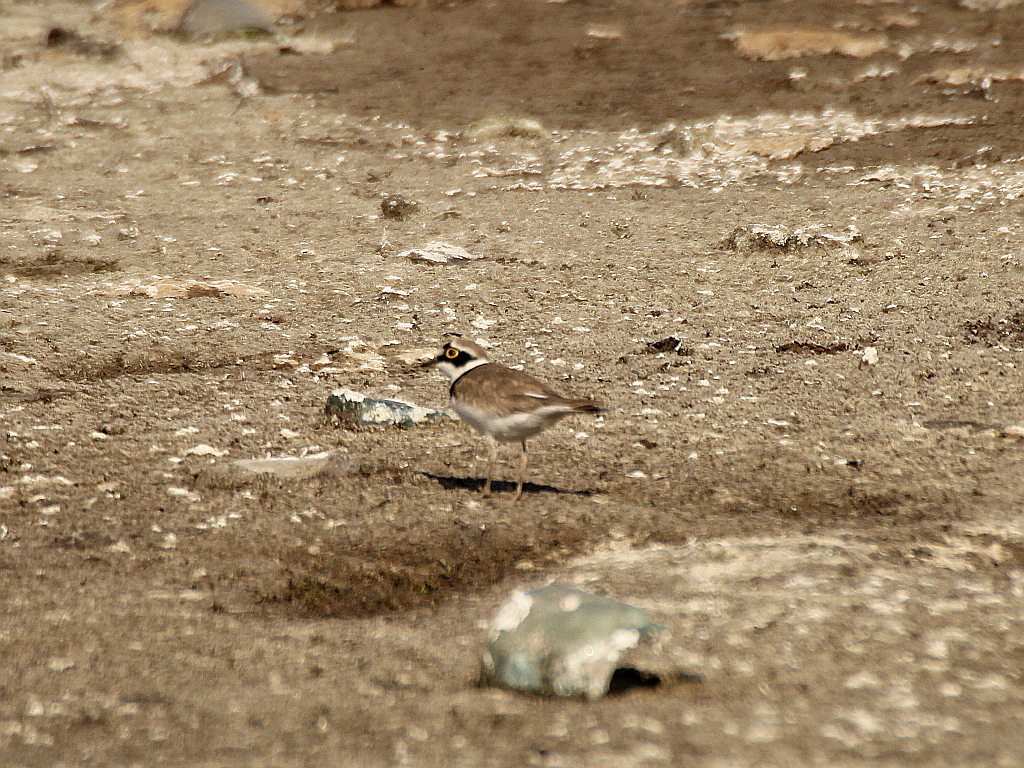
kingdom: Animalia
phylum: Chordata
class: Aves
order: Charadriiformes
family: Charadriidae
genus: Charadrius
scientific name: Charadrius dubius
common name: Little ringed plover
